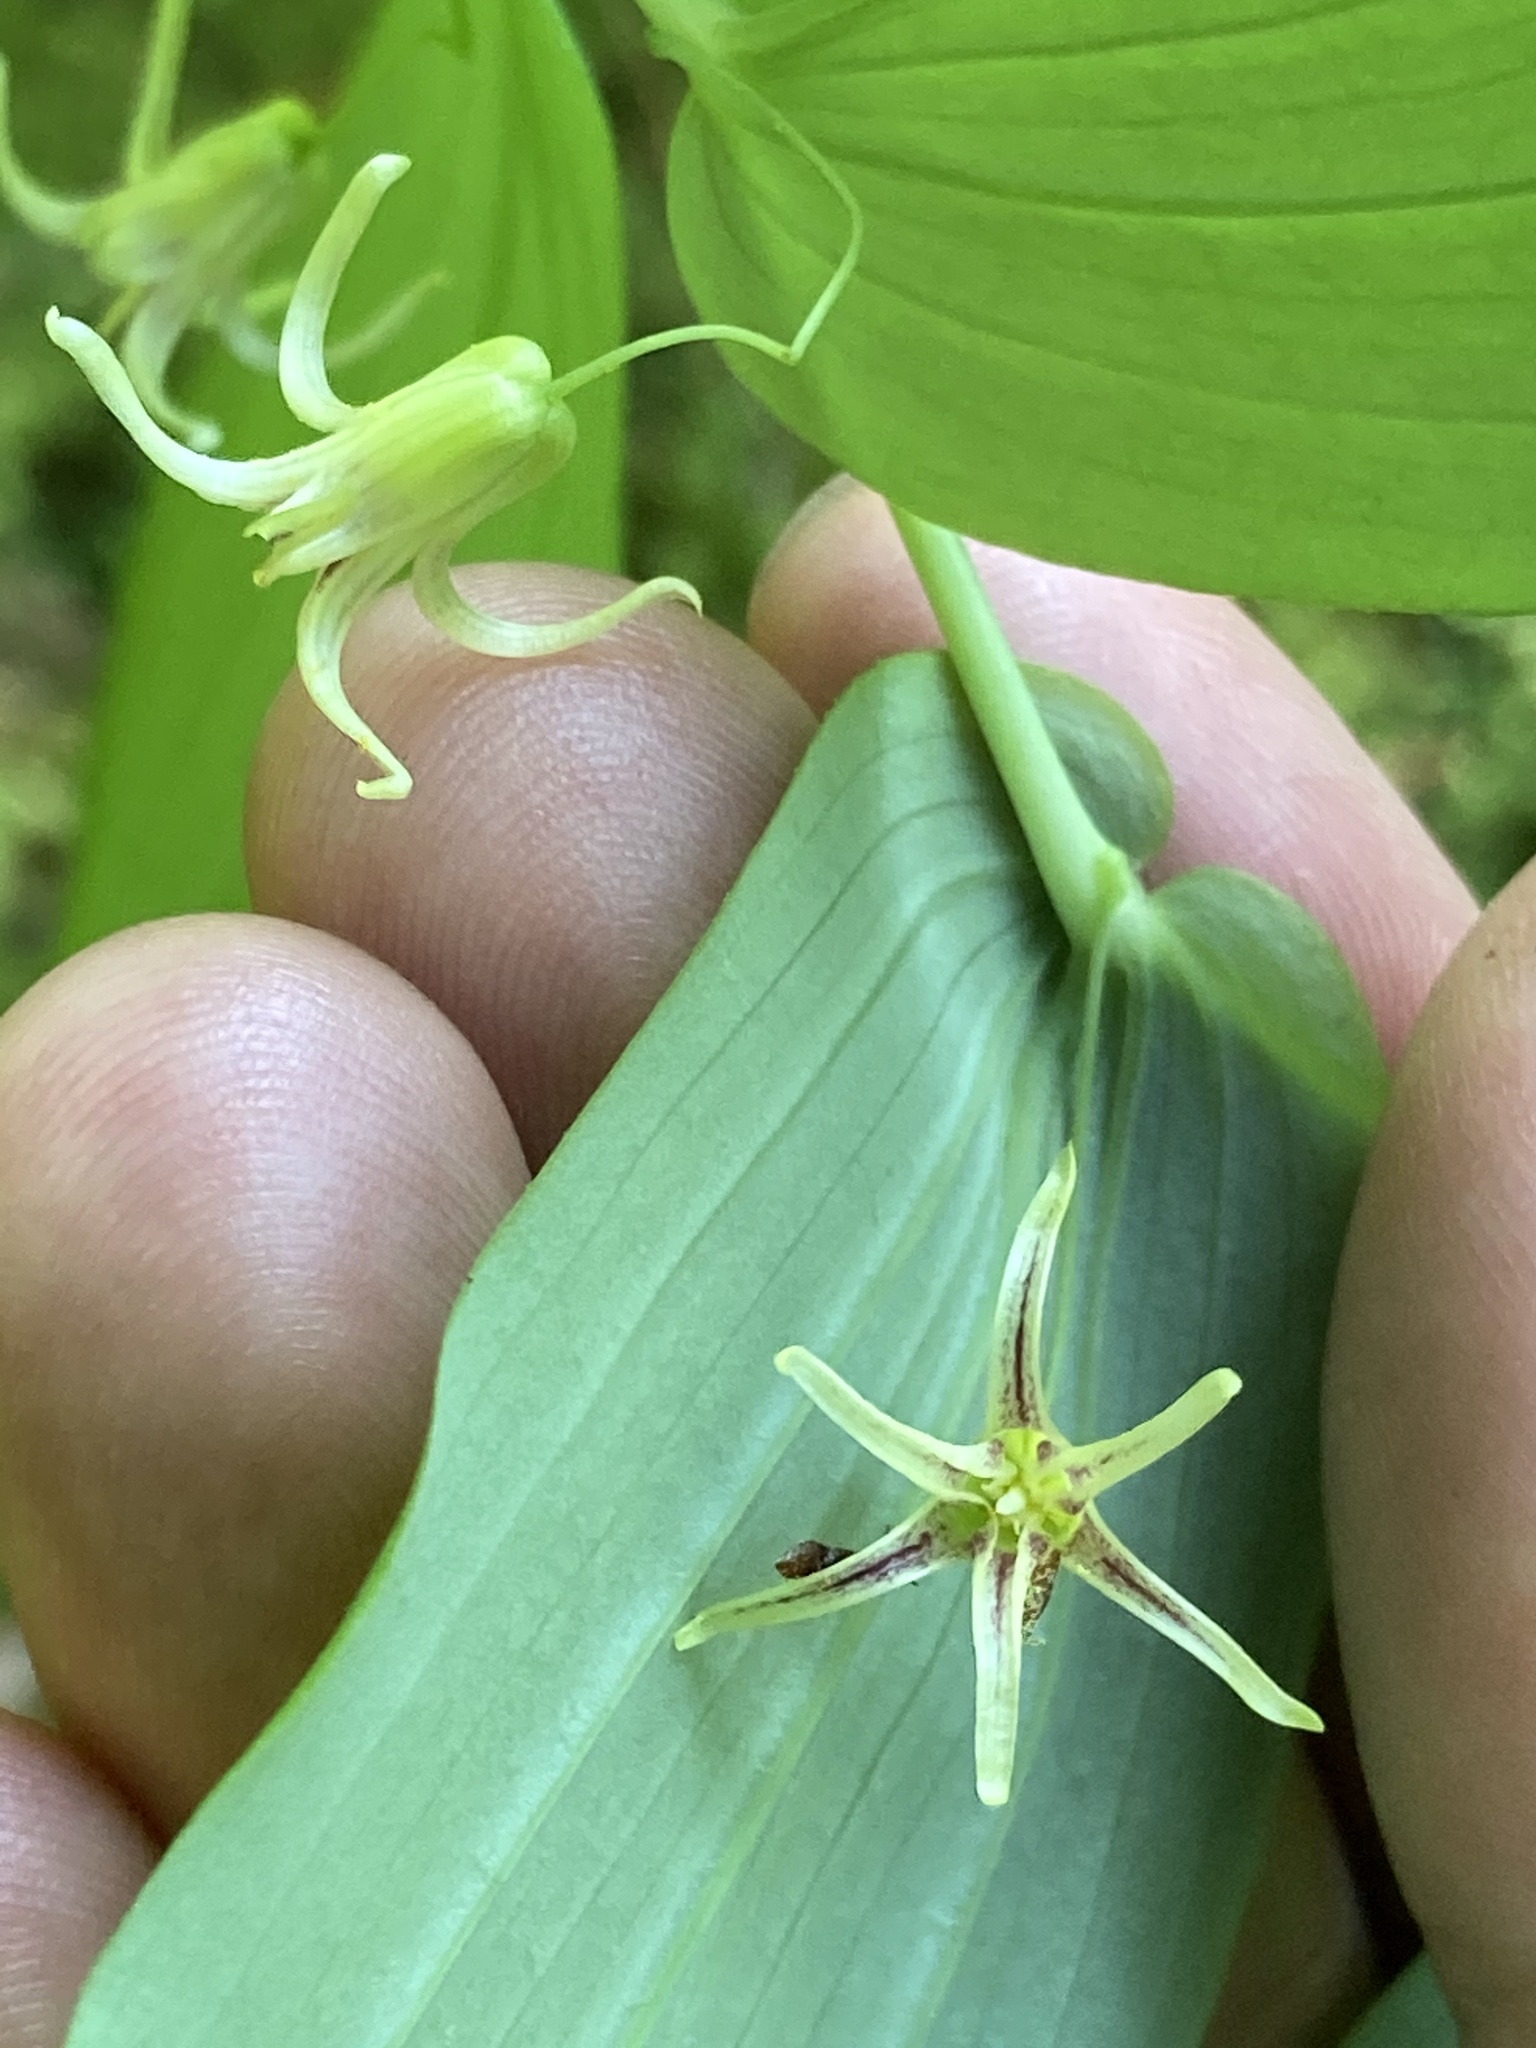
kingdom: Plantae
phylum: Tracheophyta
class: Liliopsida
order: Liliales
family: Liliaceae
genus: Streptopus
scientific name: Streptopus amplexifolius
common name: Clasp twisted stalk
